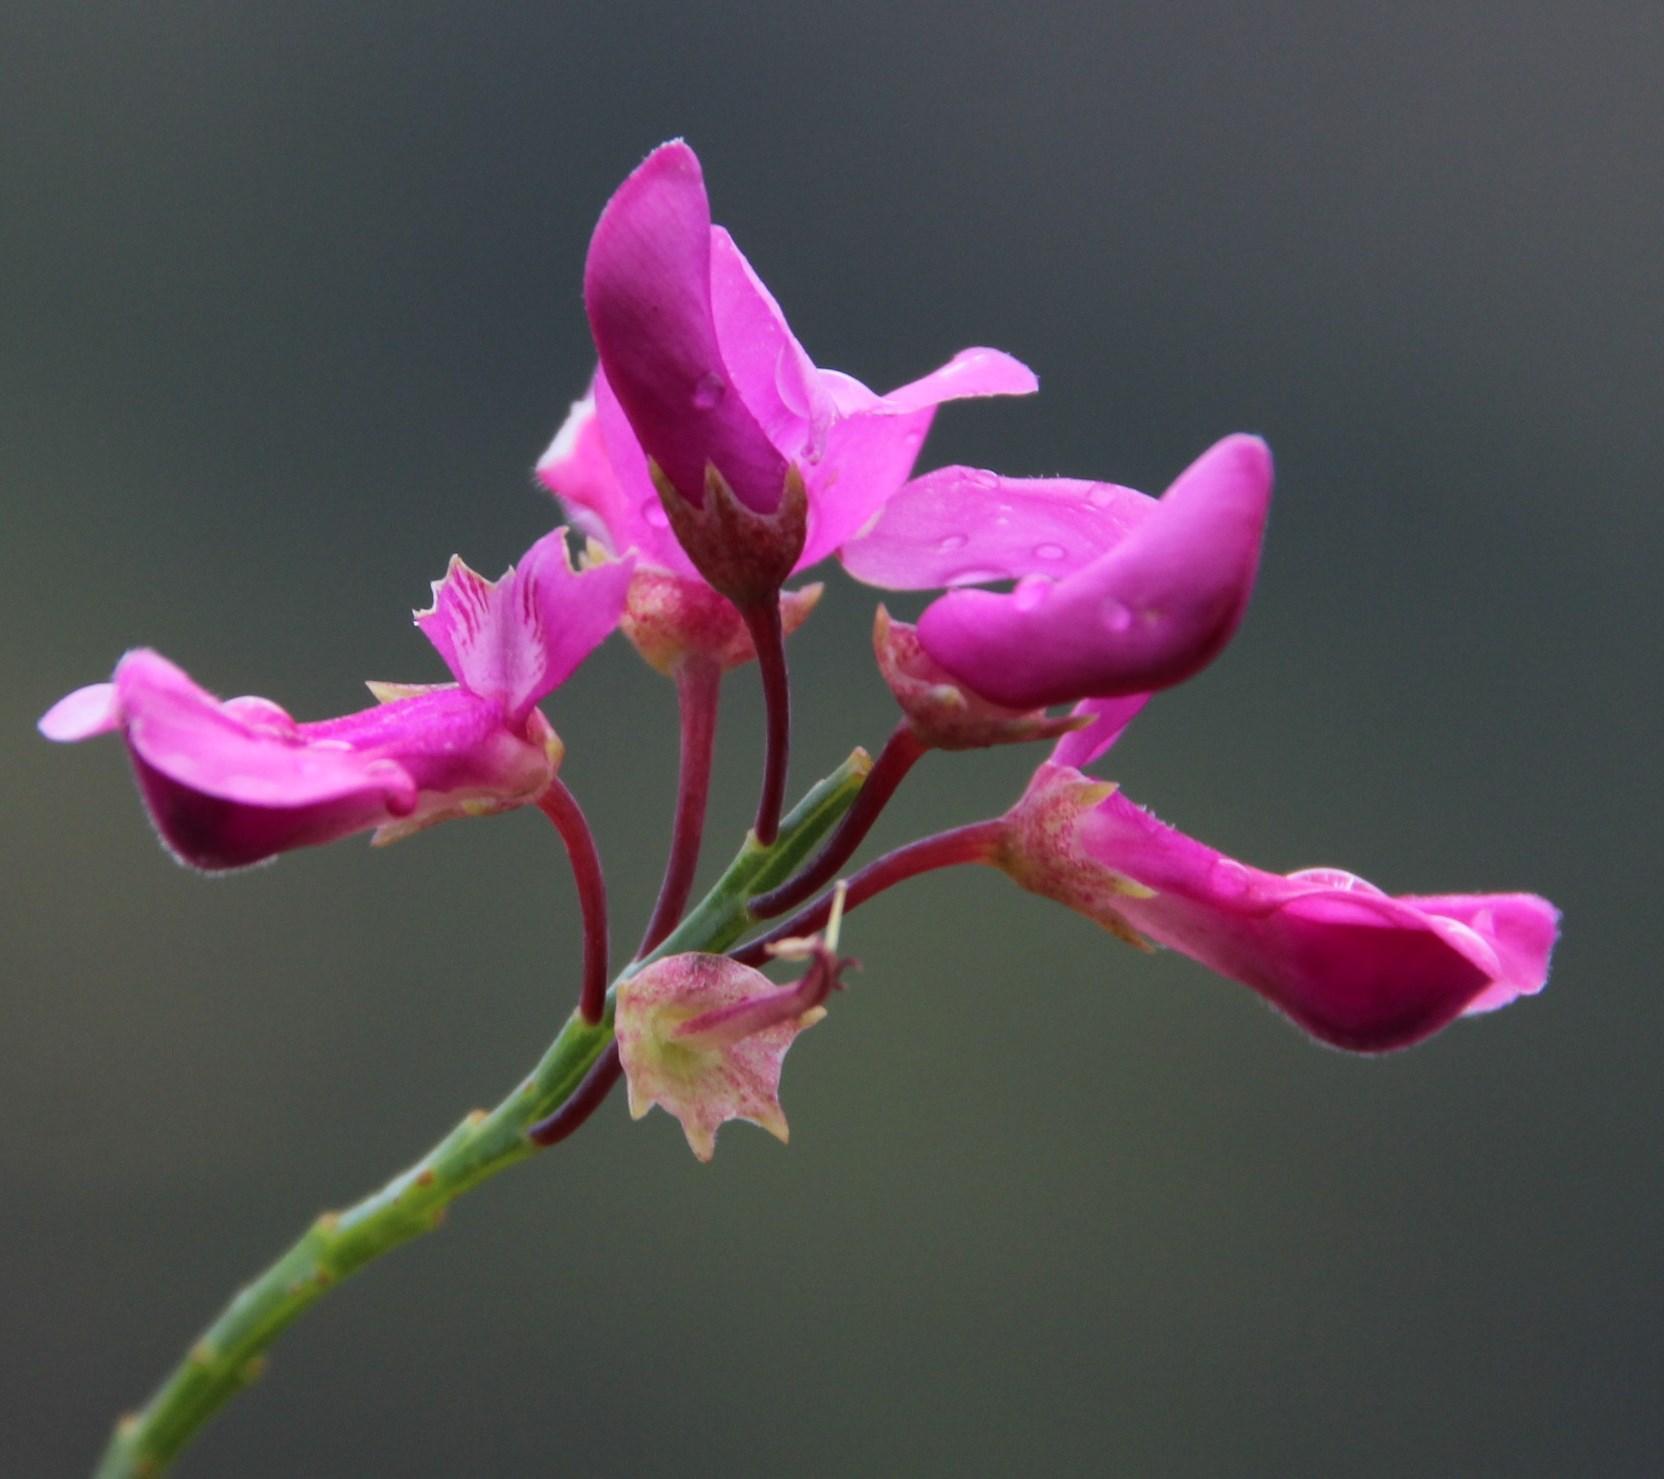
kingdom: Plantae
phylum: Tracheophyta
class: Magnoliopsida
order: Fabales
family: Fabaceae
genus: Indigofera
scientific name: Indigofera filifolia
